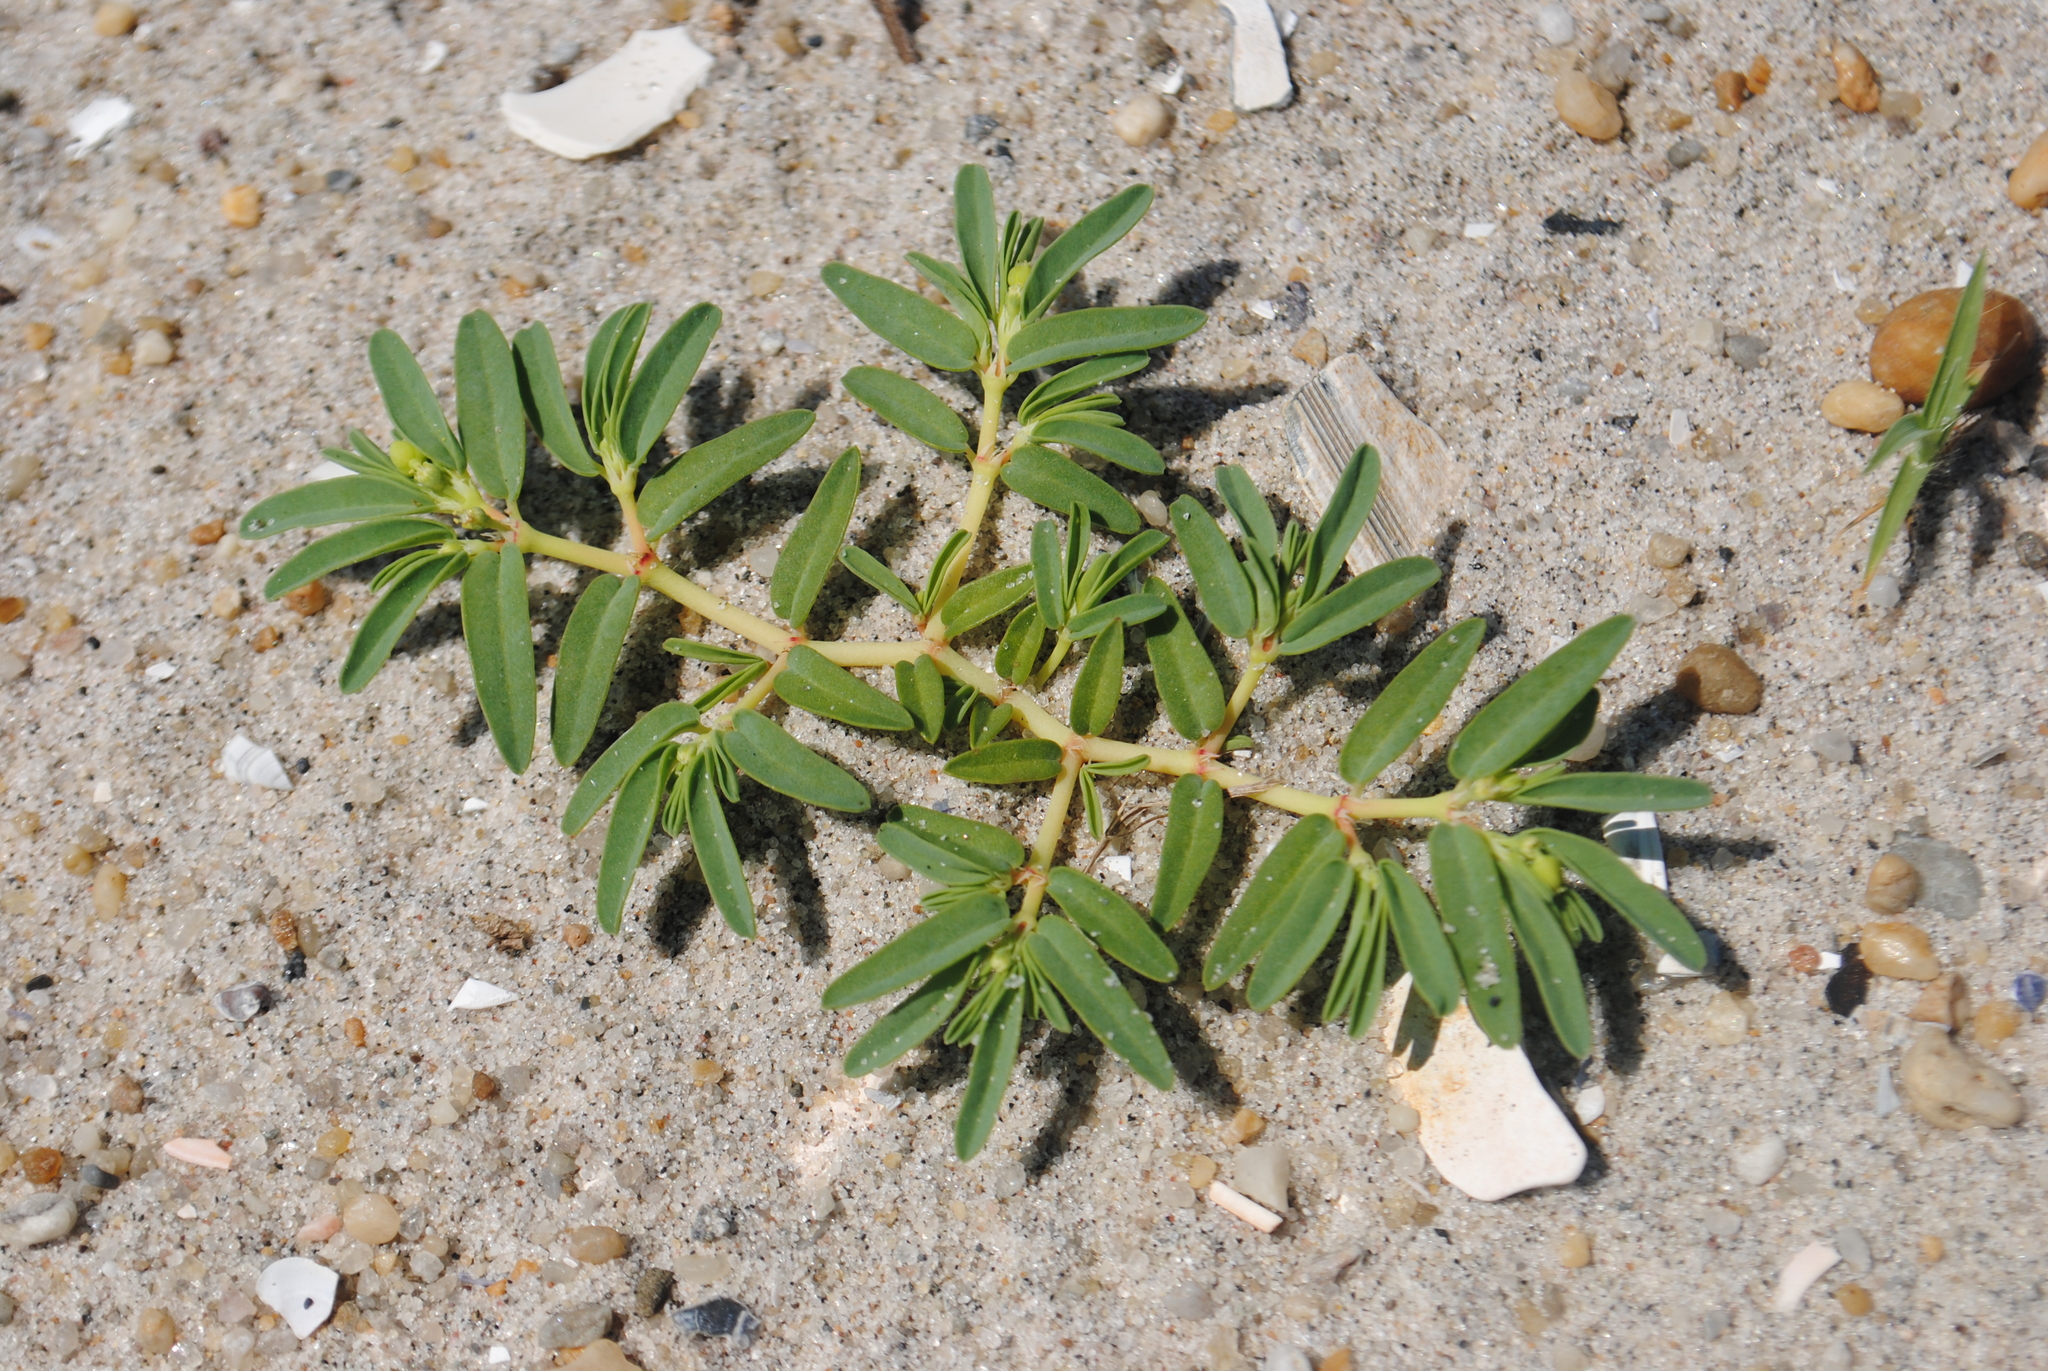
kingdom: Plantae
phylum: Tracheophyta
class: Magnoliopsida
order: Malpighiales
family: Euphorbiaceae
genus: Euphorbia
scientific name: Euphorbia polygonifolia
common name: Knotweed spurge
